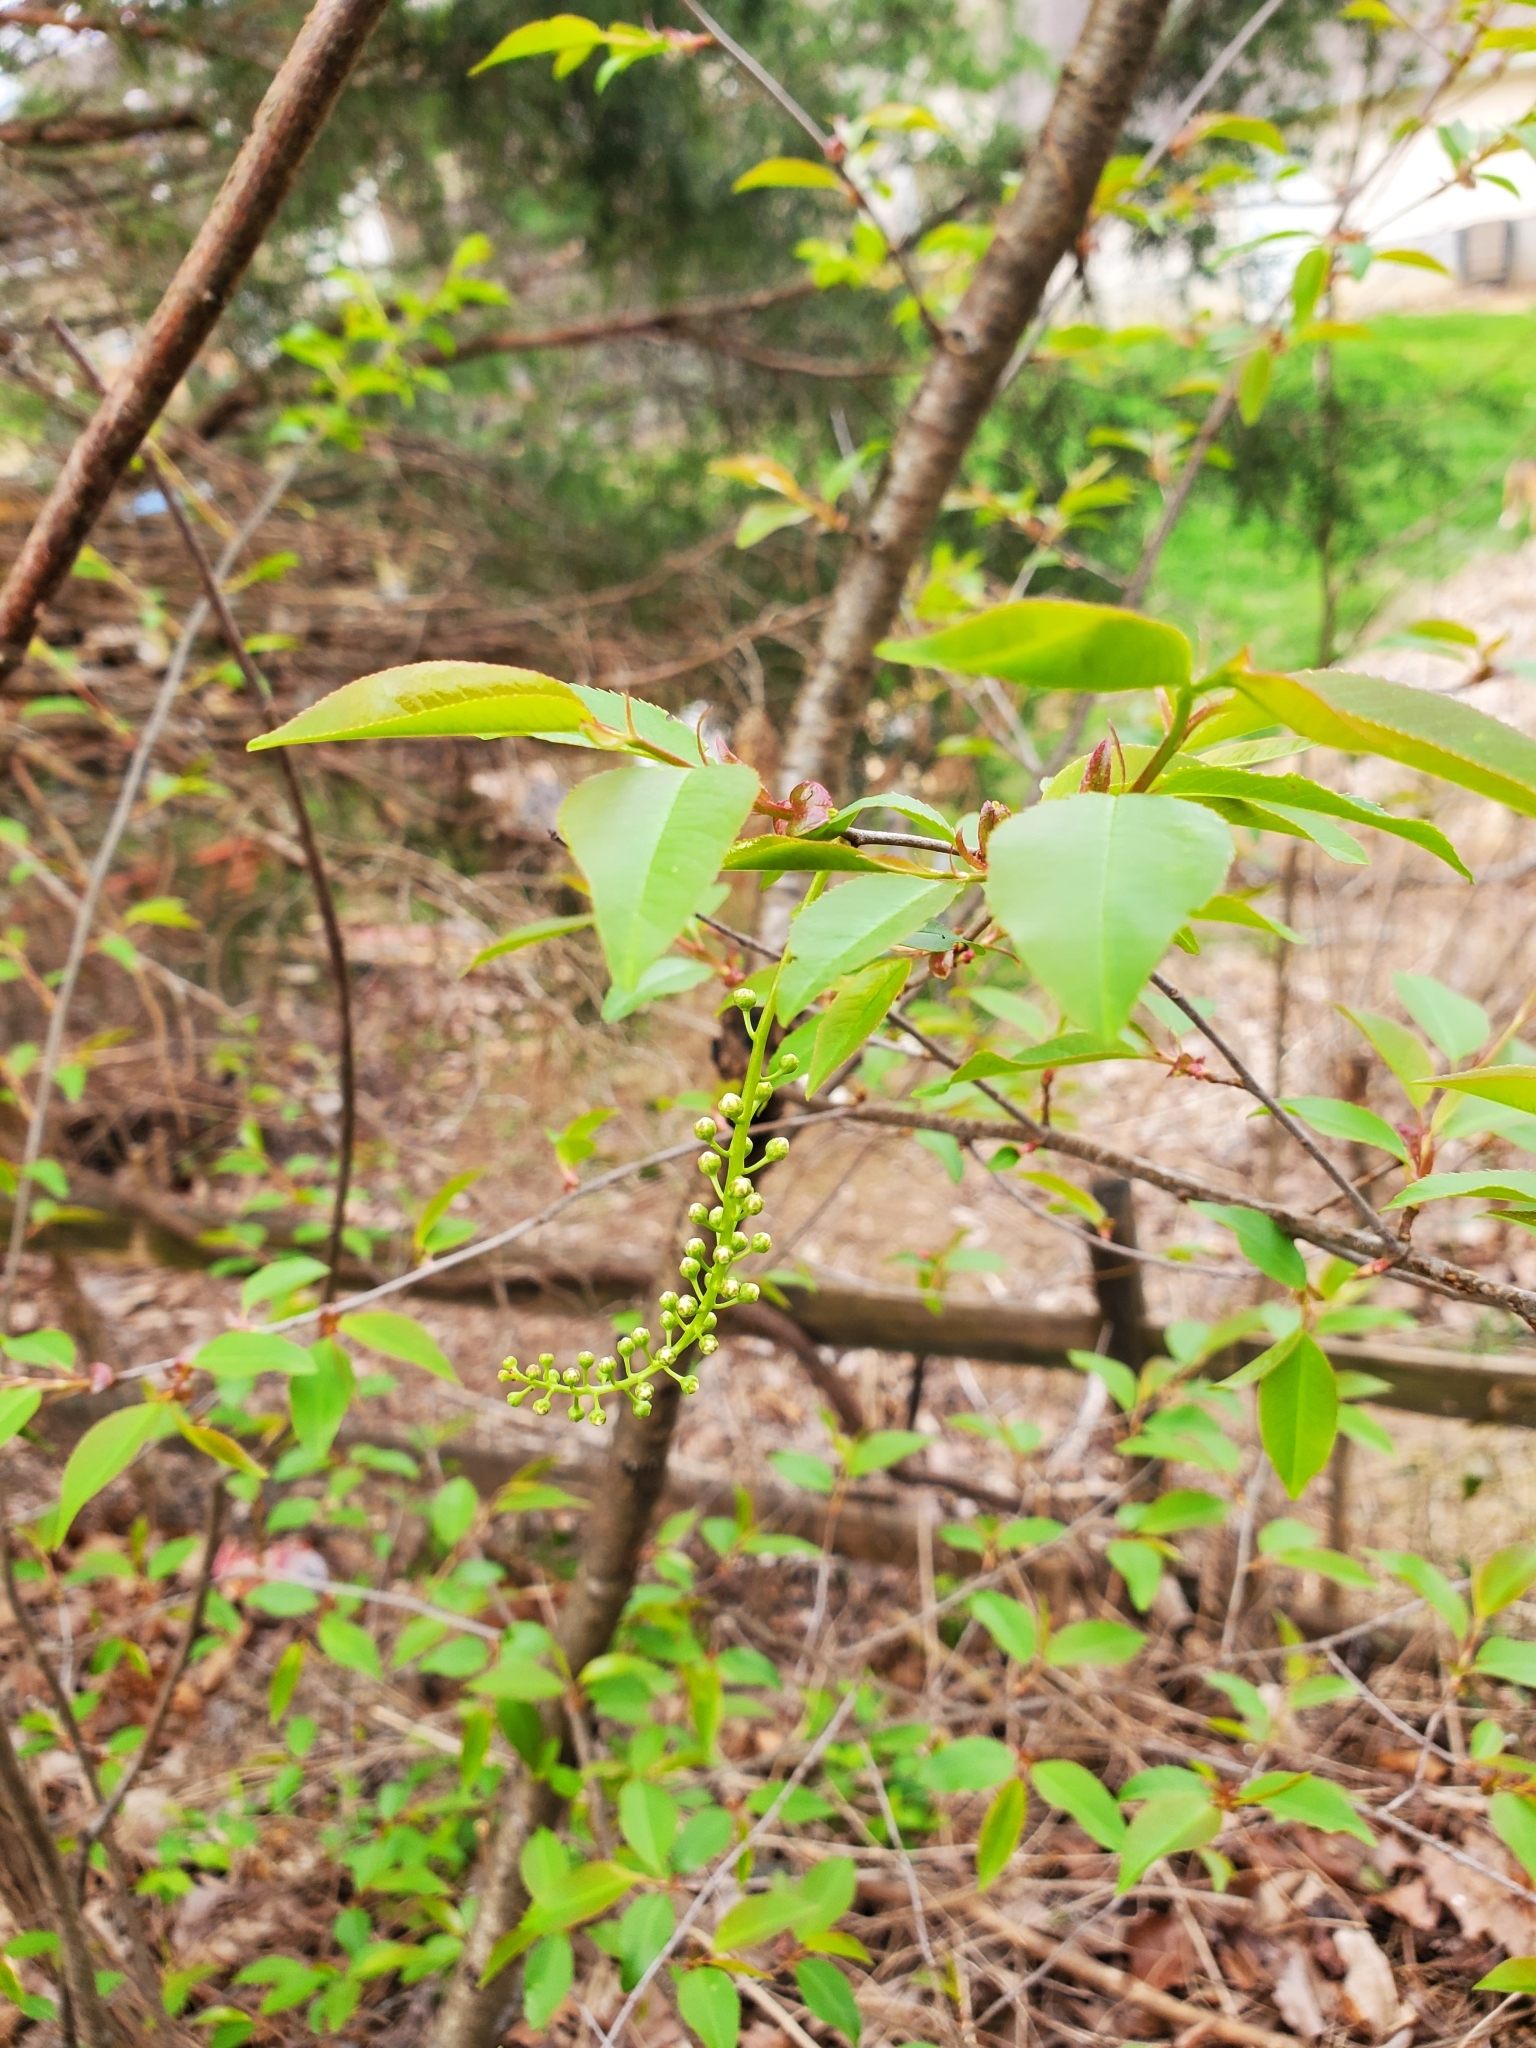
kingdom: Plantae
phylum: Tracheophyta
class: Magnoliopsida
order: Rosales
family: Rosaceae
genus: Prunus
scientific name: Prunus serotina
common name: Black cherry
